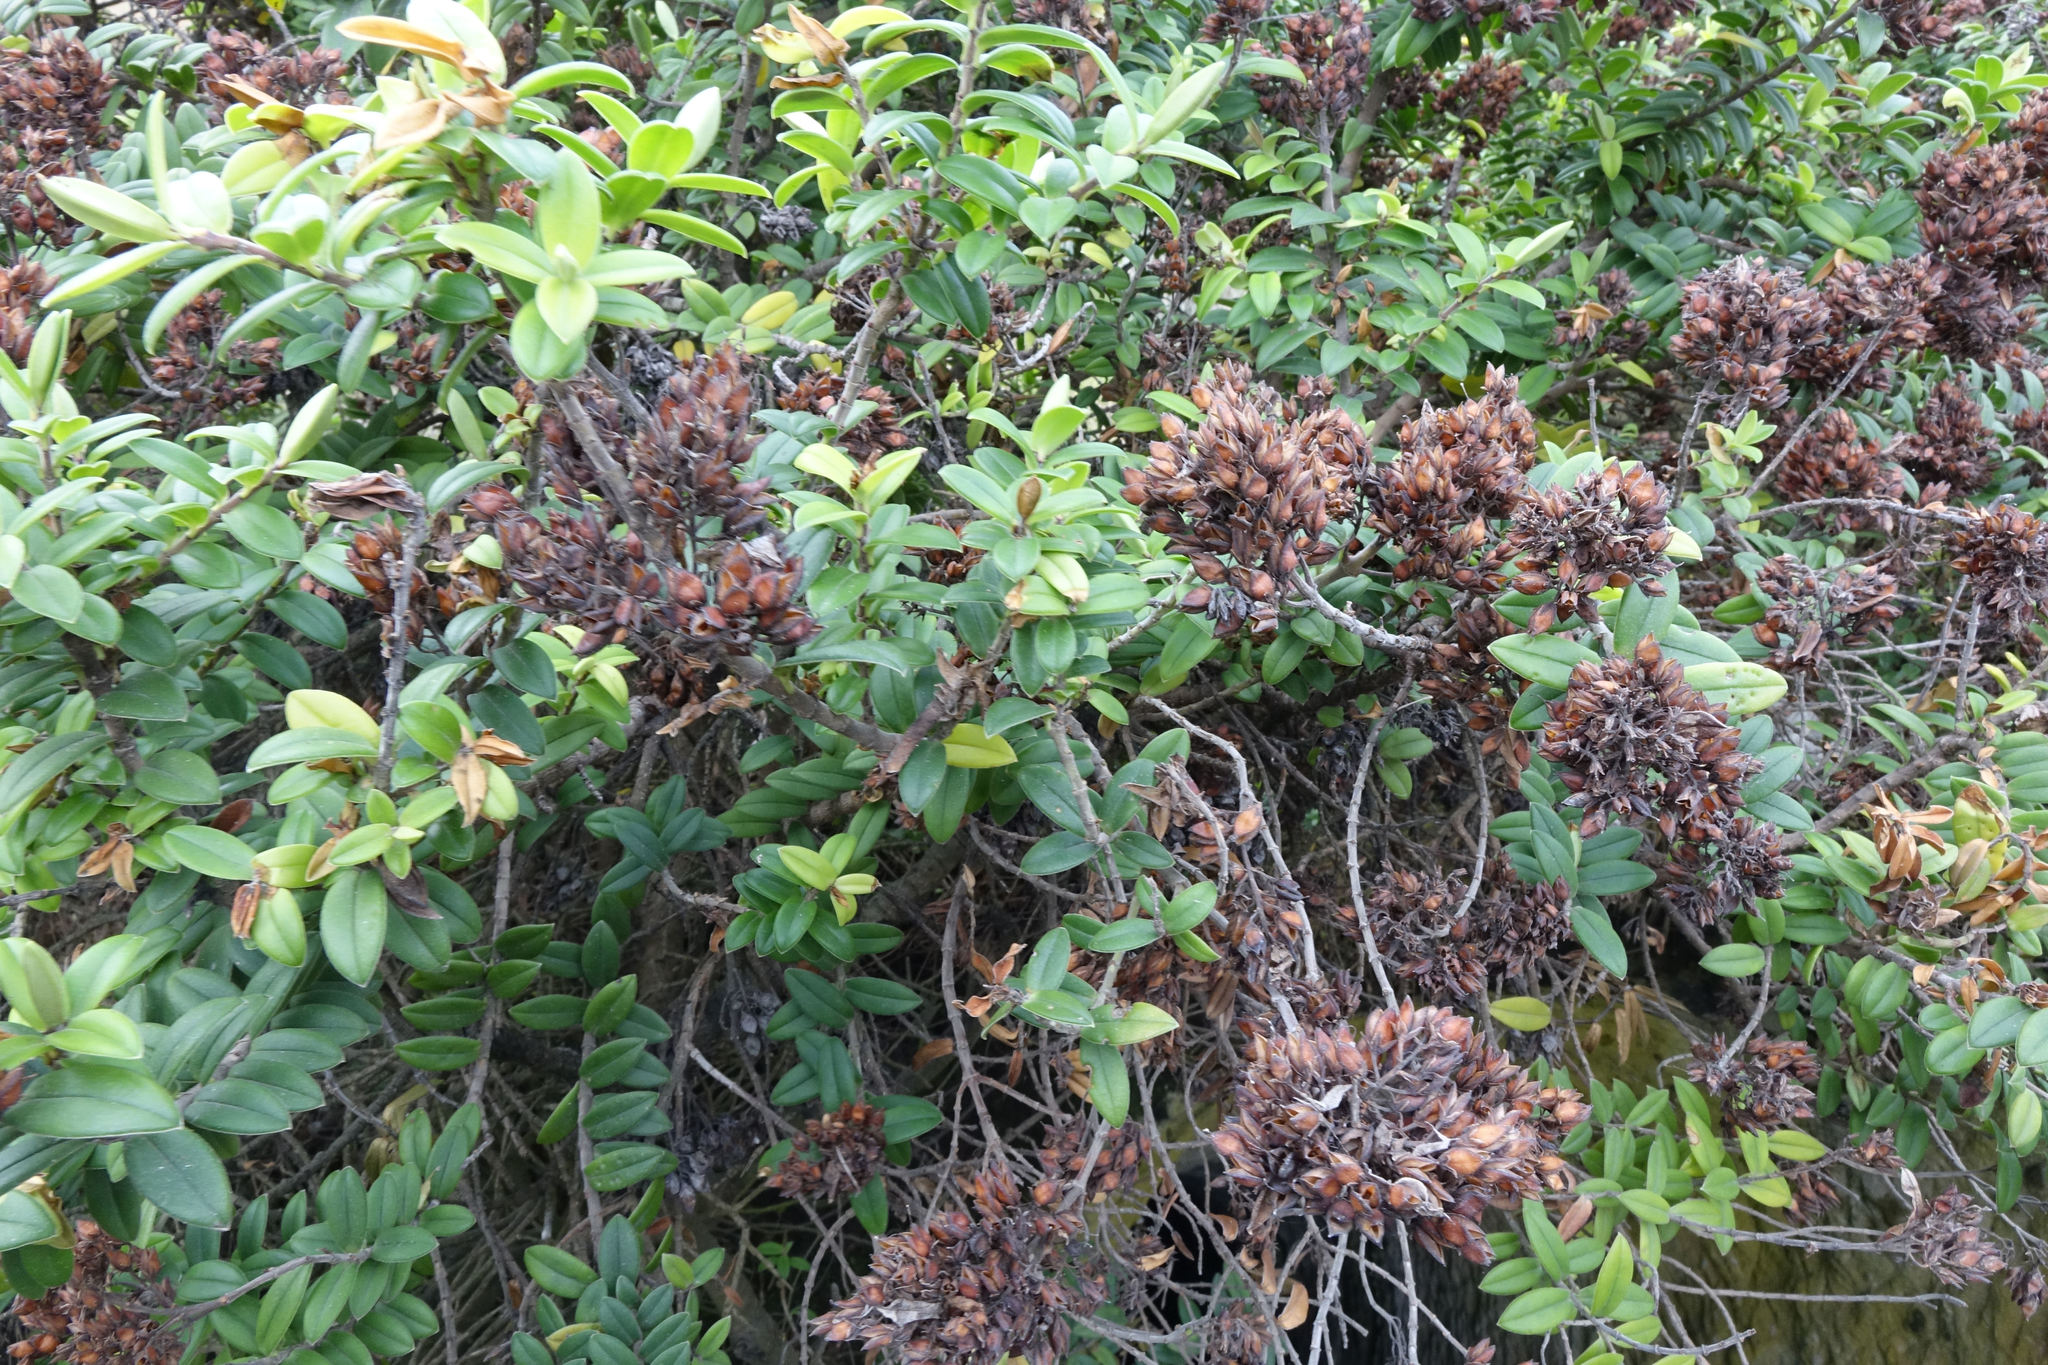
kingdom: Plantae
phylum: Tracheophyta
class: Magnoliopsida
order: Lamiales
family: Plantaginaceae
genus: Veronica
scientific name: Veronica elliptica
